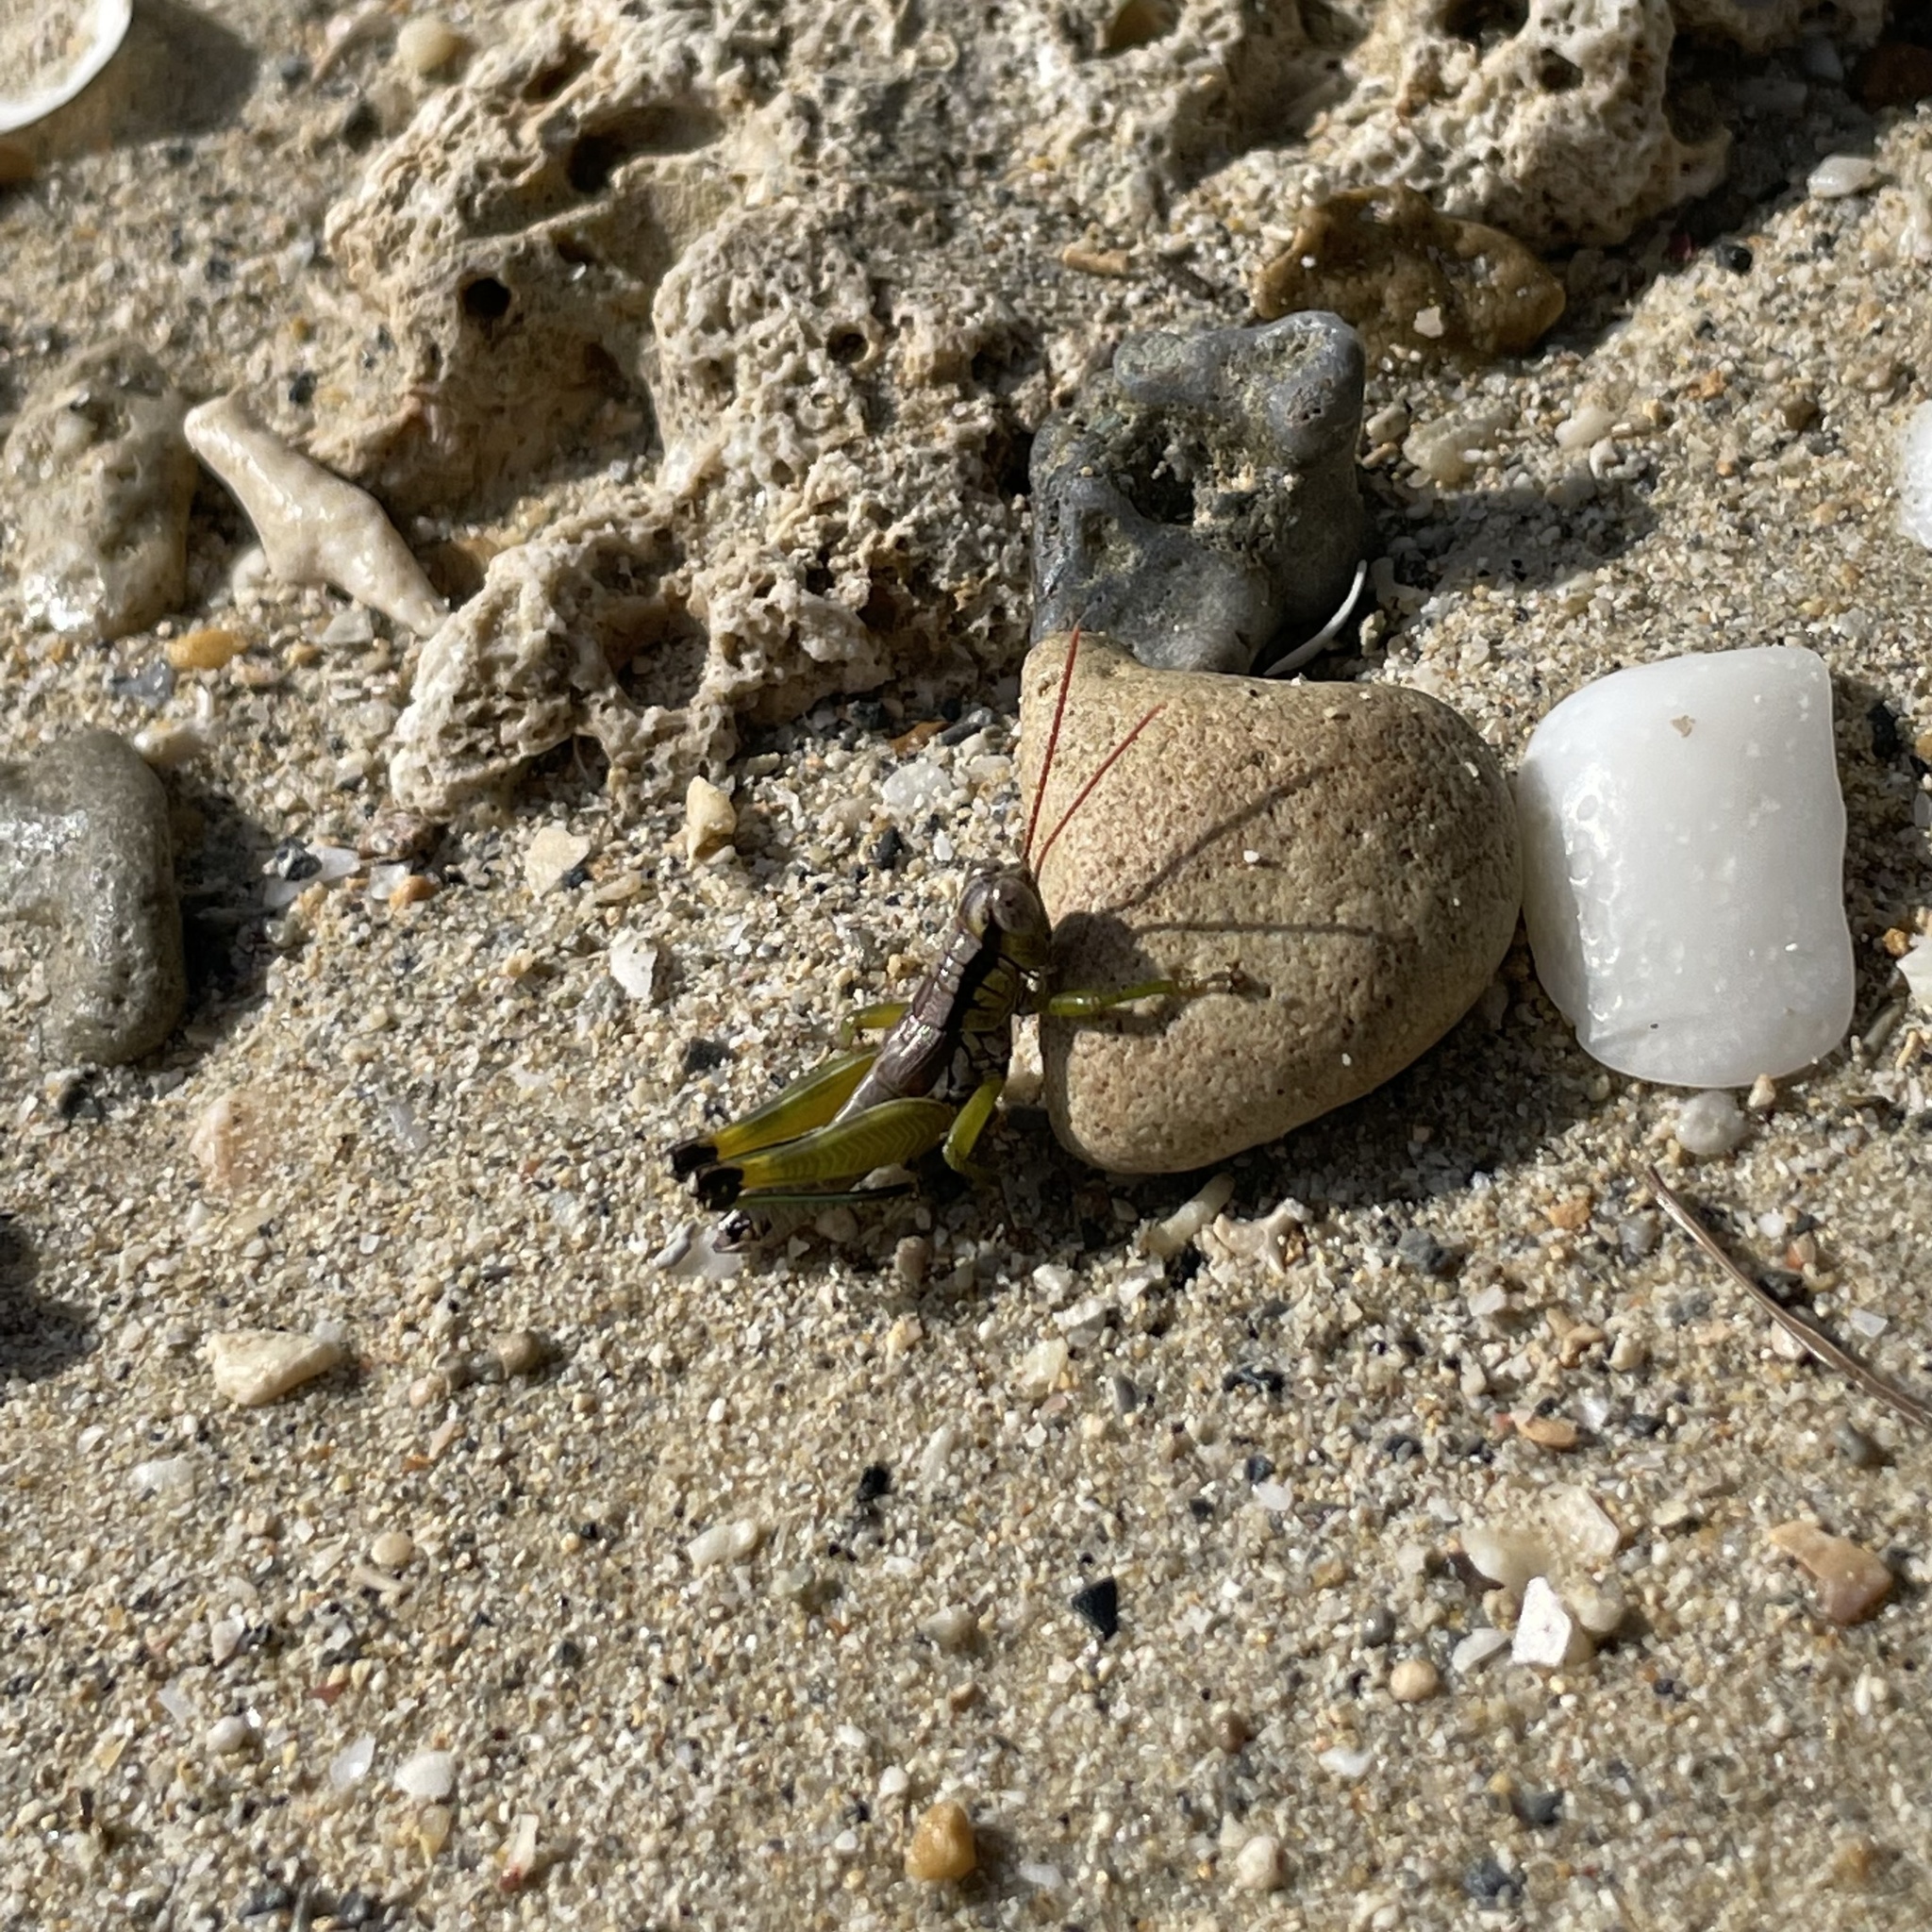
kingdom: Animalia
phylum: Arthropoda
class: Insecta
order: Orthoptera
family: Acrididae
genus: Tonkinacris
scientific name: Tonkinacris ruficerus
